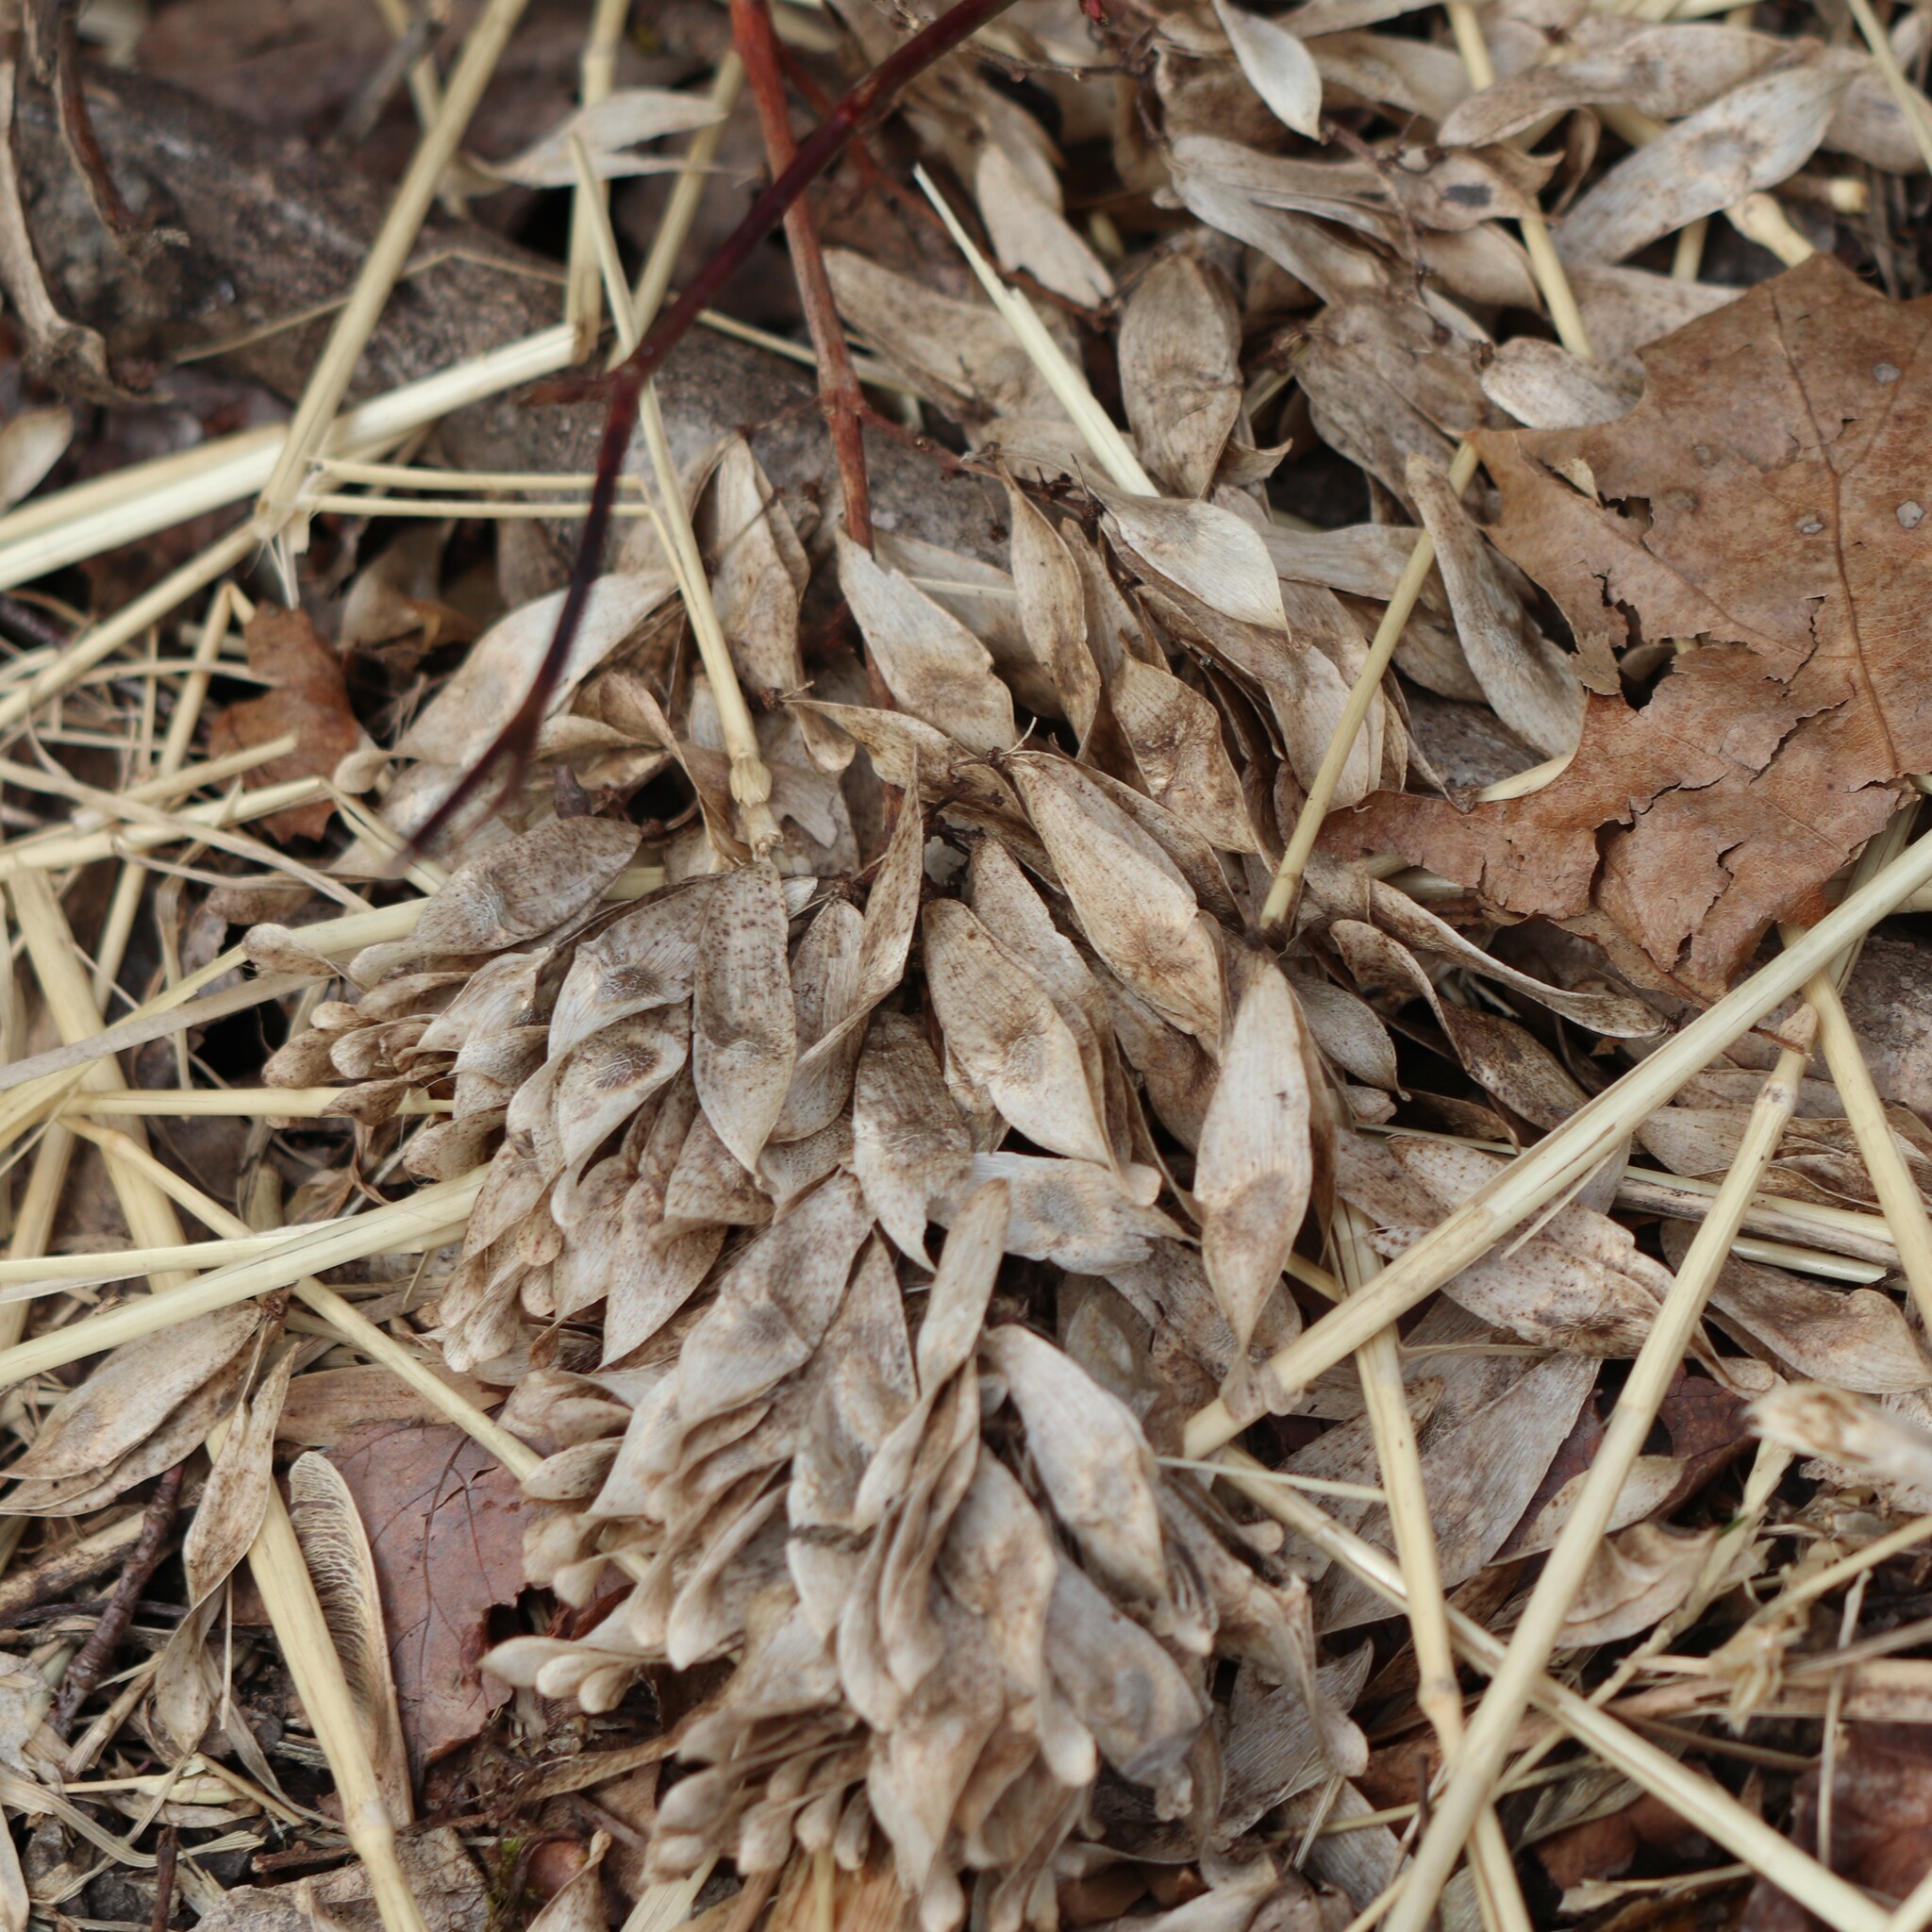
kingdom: Plantae
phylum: Tracheophyta
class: Magnoliopsida
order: Sapindales
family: Simaroubaceae
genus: Ailanthus
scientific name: Ailanthus altissima
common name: Tree-of-heaven
